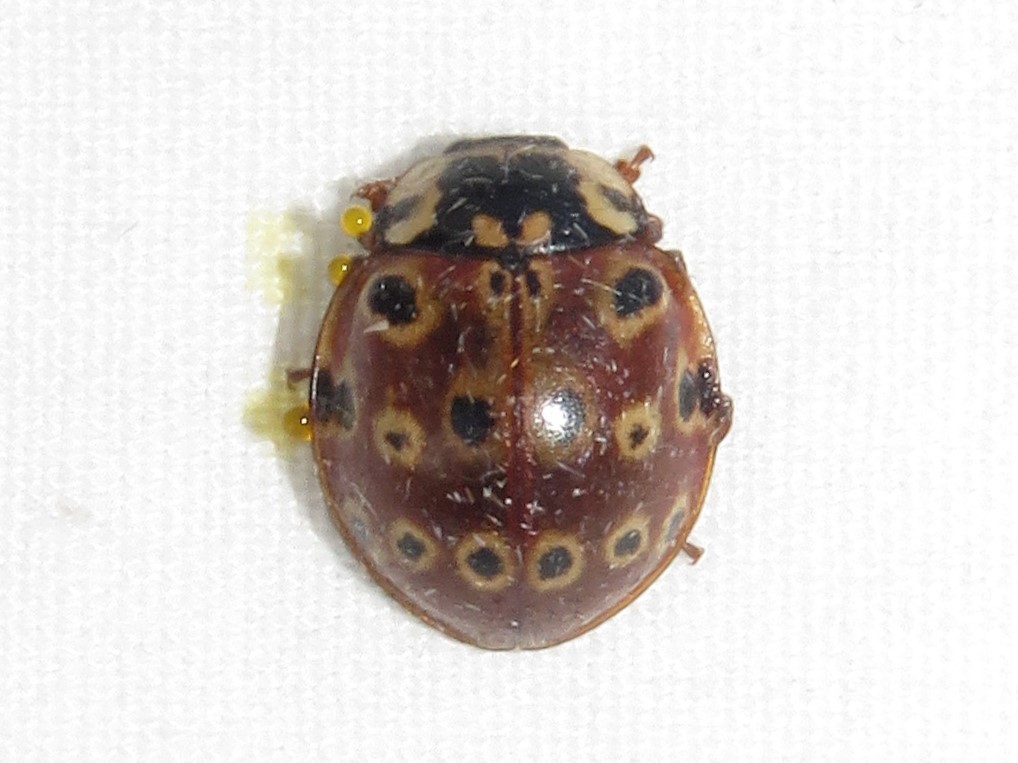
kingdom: Animalia
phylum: Arthropoda
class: Insecta
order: Coleoptera
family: Coccinellidae
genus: Anatis
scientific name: Anatis mali
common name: Eye-spotted lady beetle
